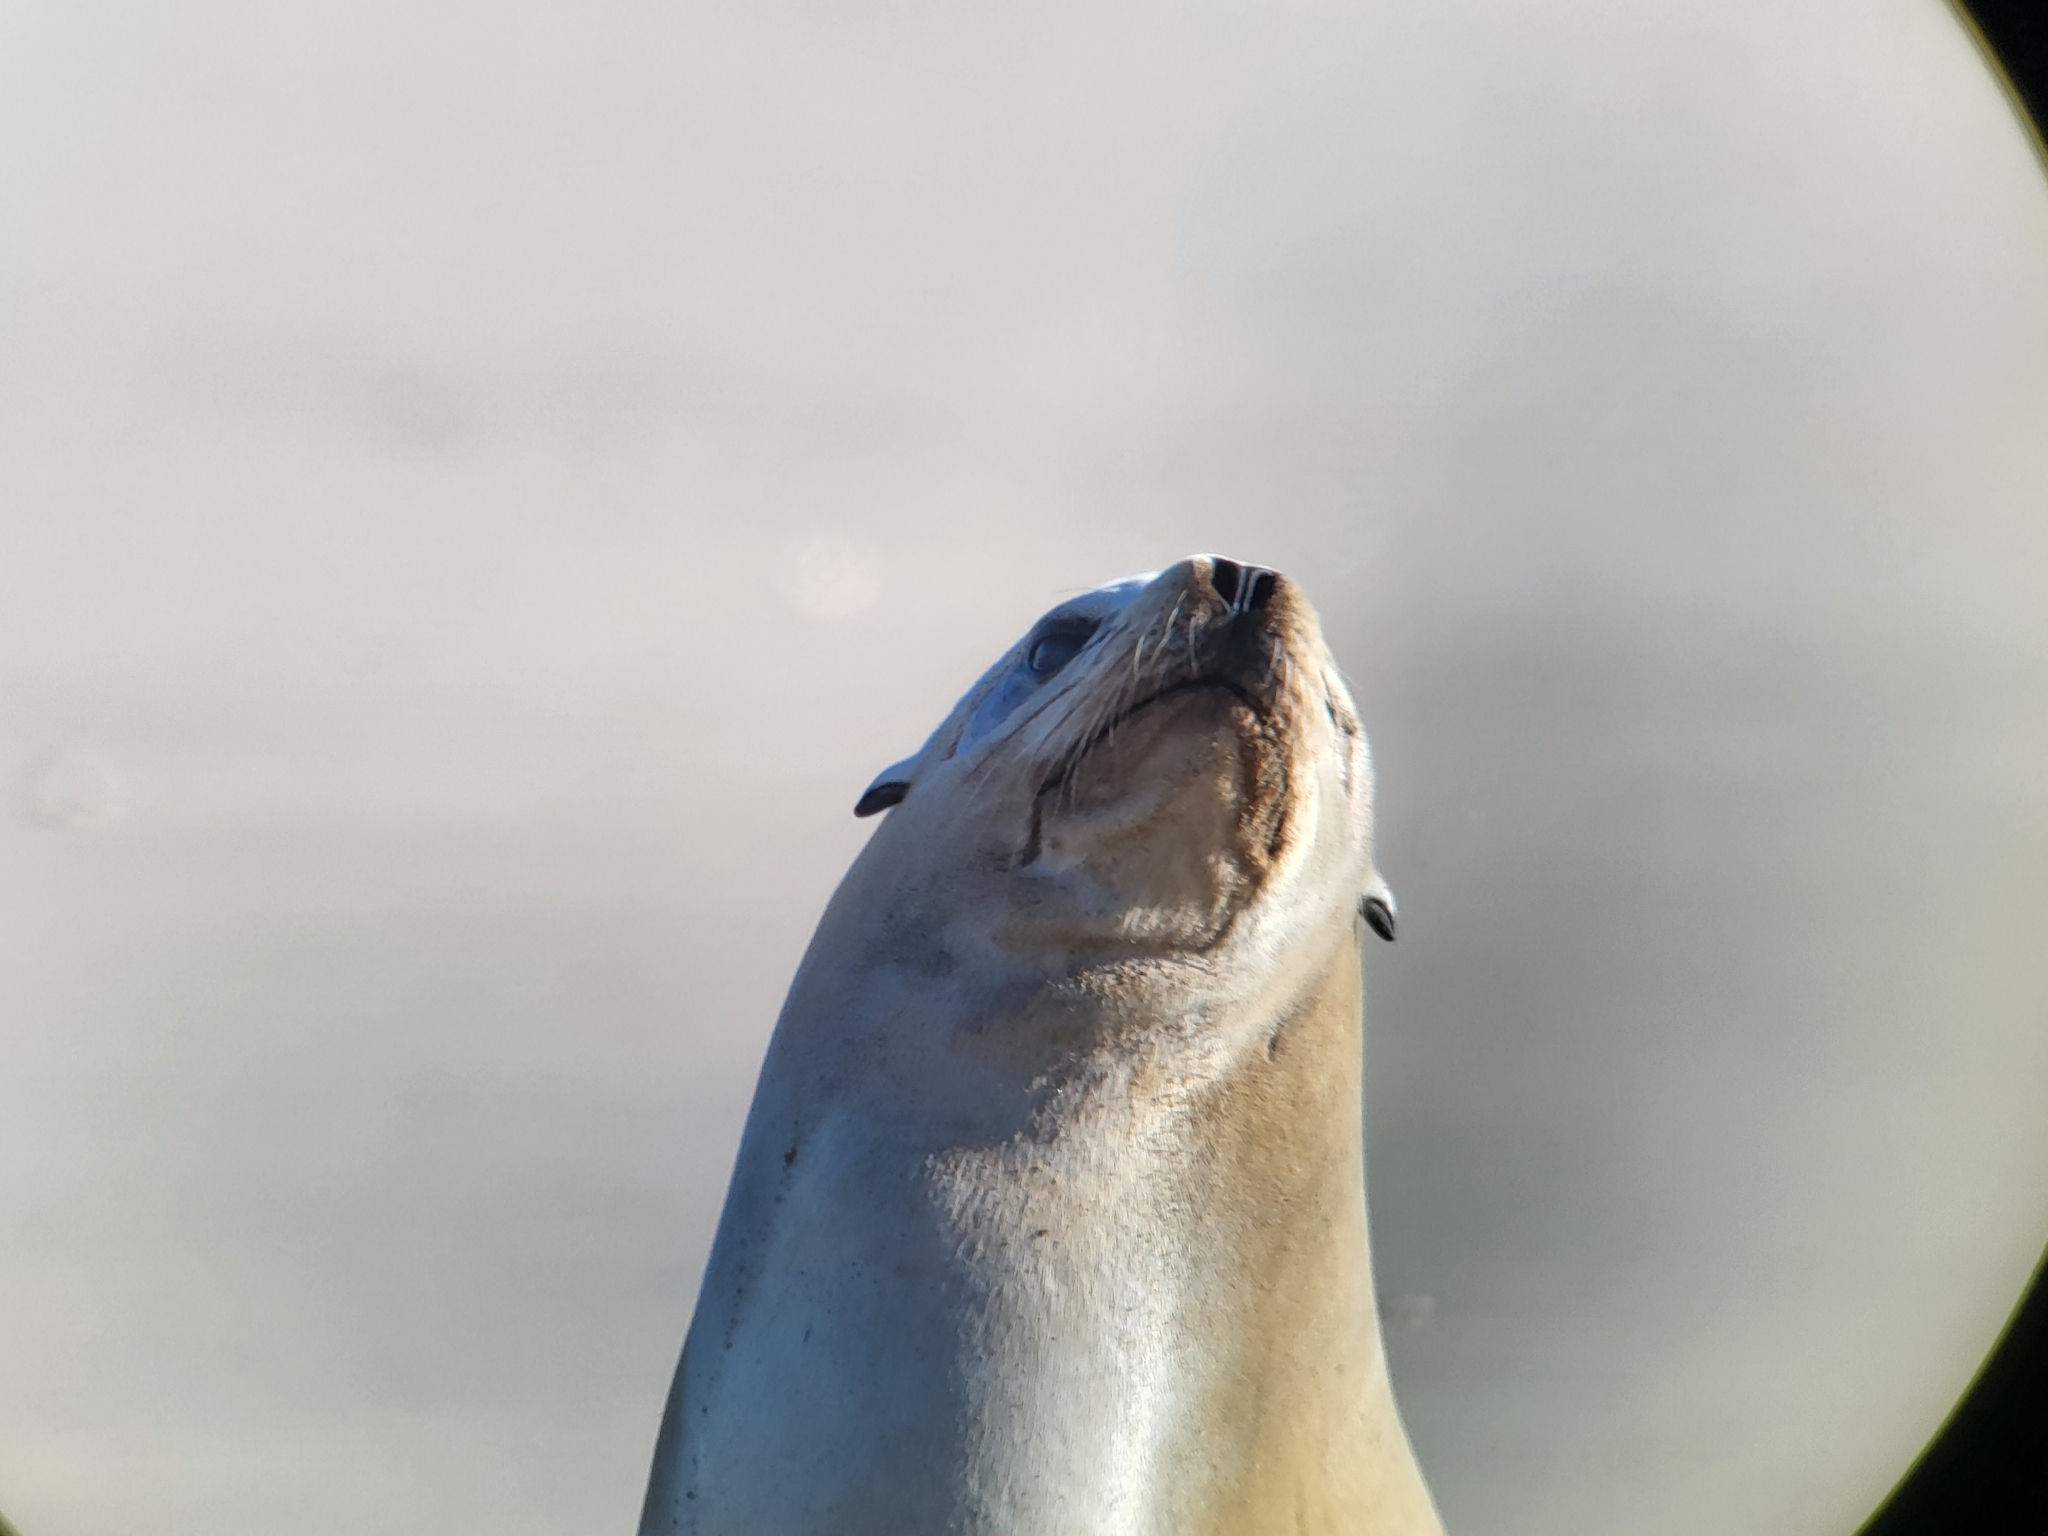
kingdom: Animalia
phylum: Chordata
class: Mammalia
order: Carnivora
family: Otariidae
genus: Zalophus
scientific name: Zalophus californianus
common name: California sea lion
